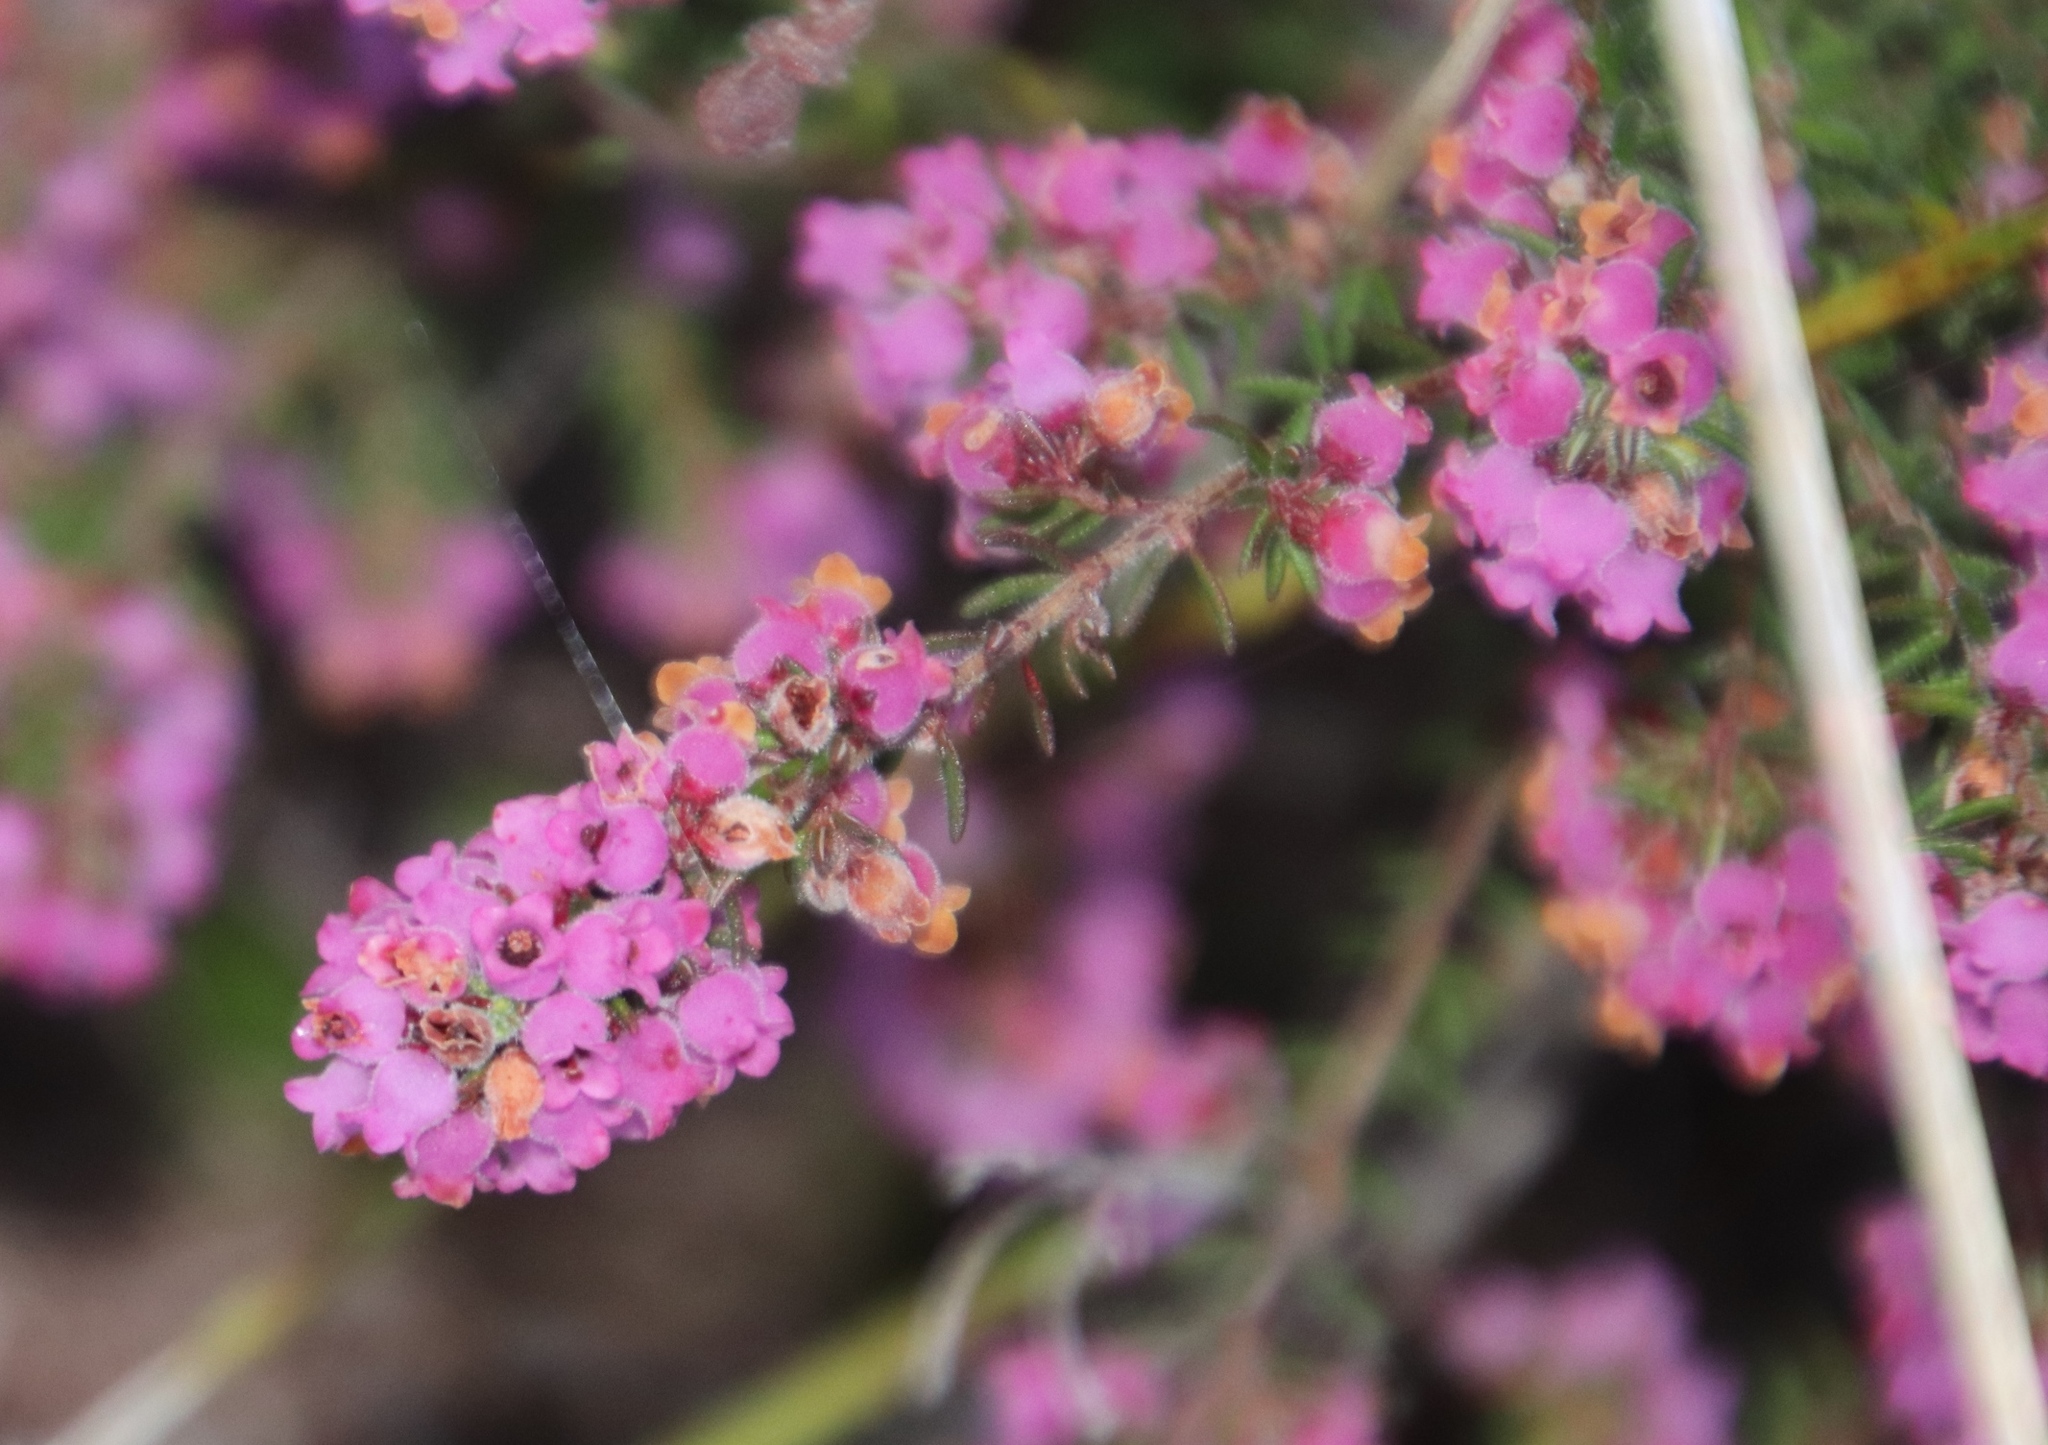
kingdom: Plantae
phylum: Tracheophyta
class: Magnoliopsida
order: Ericales
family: Ericaceae
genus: Erica
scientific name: Erica mollis
